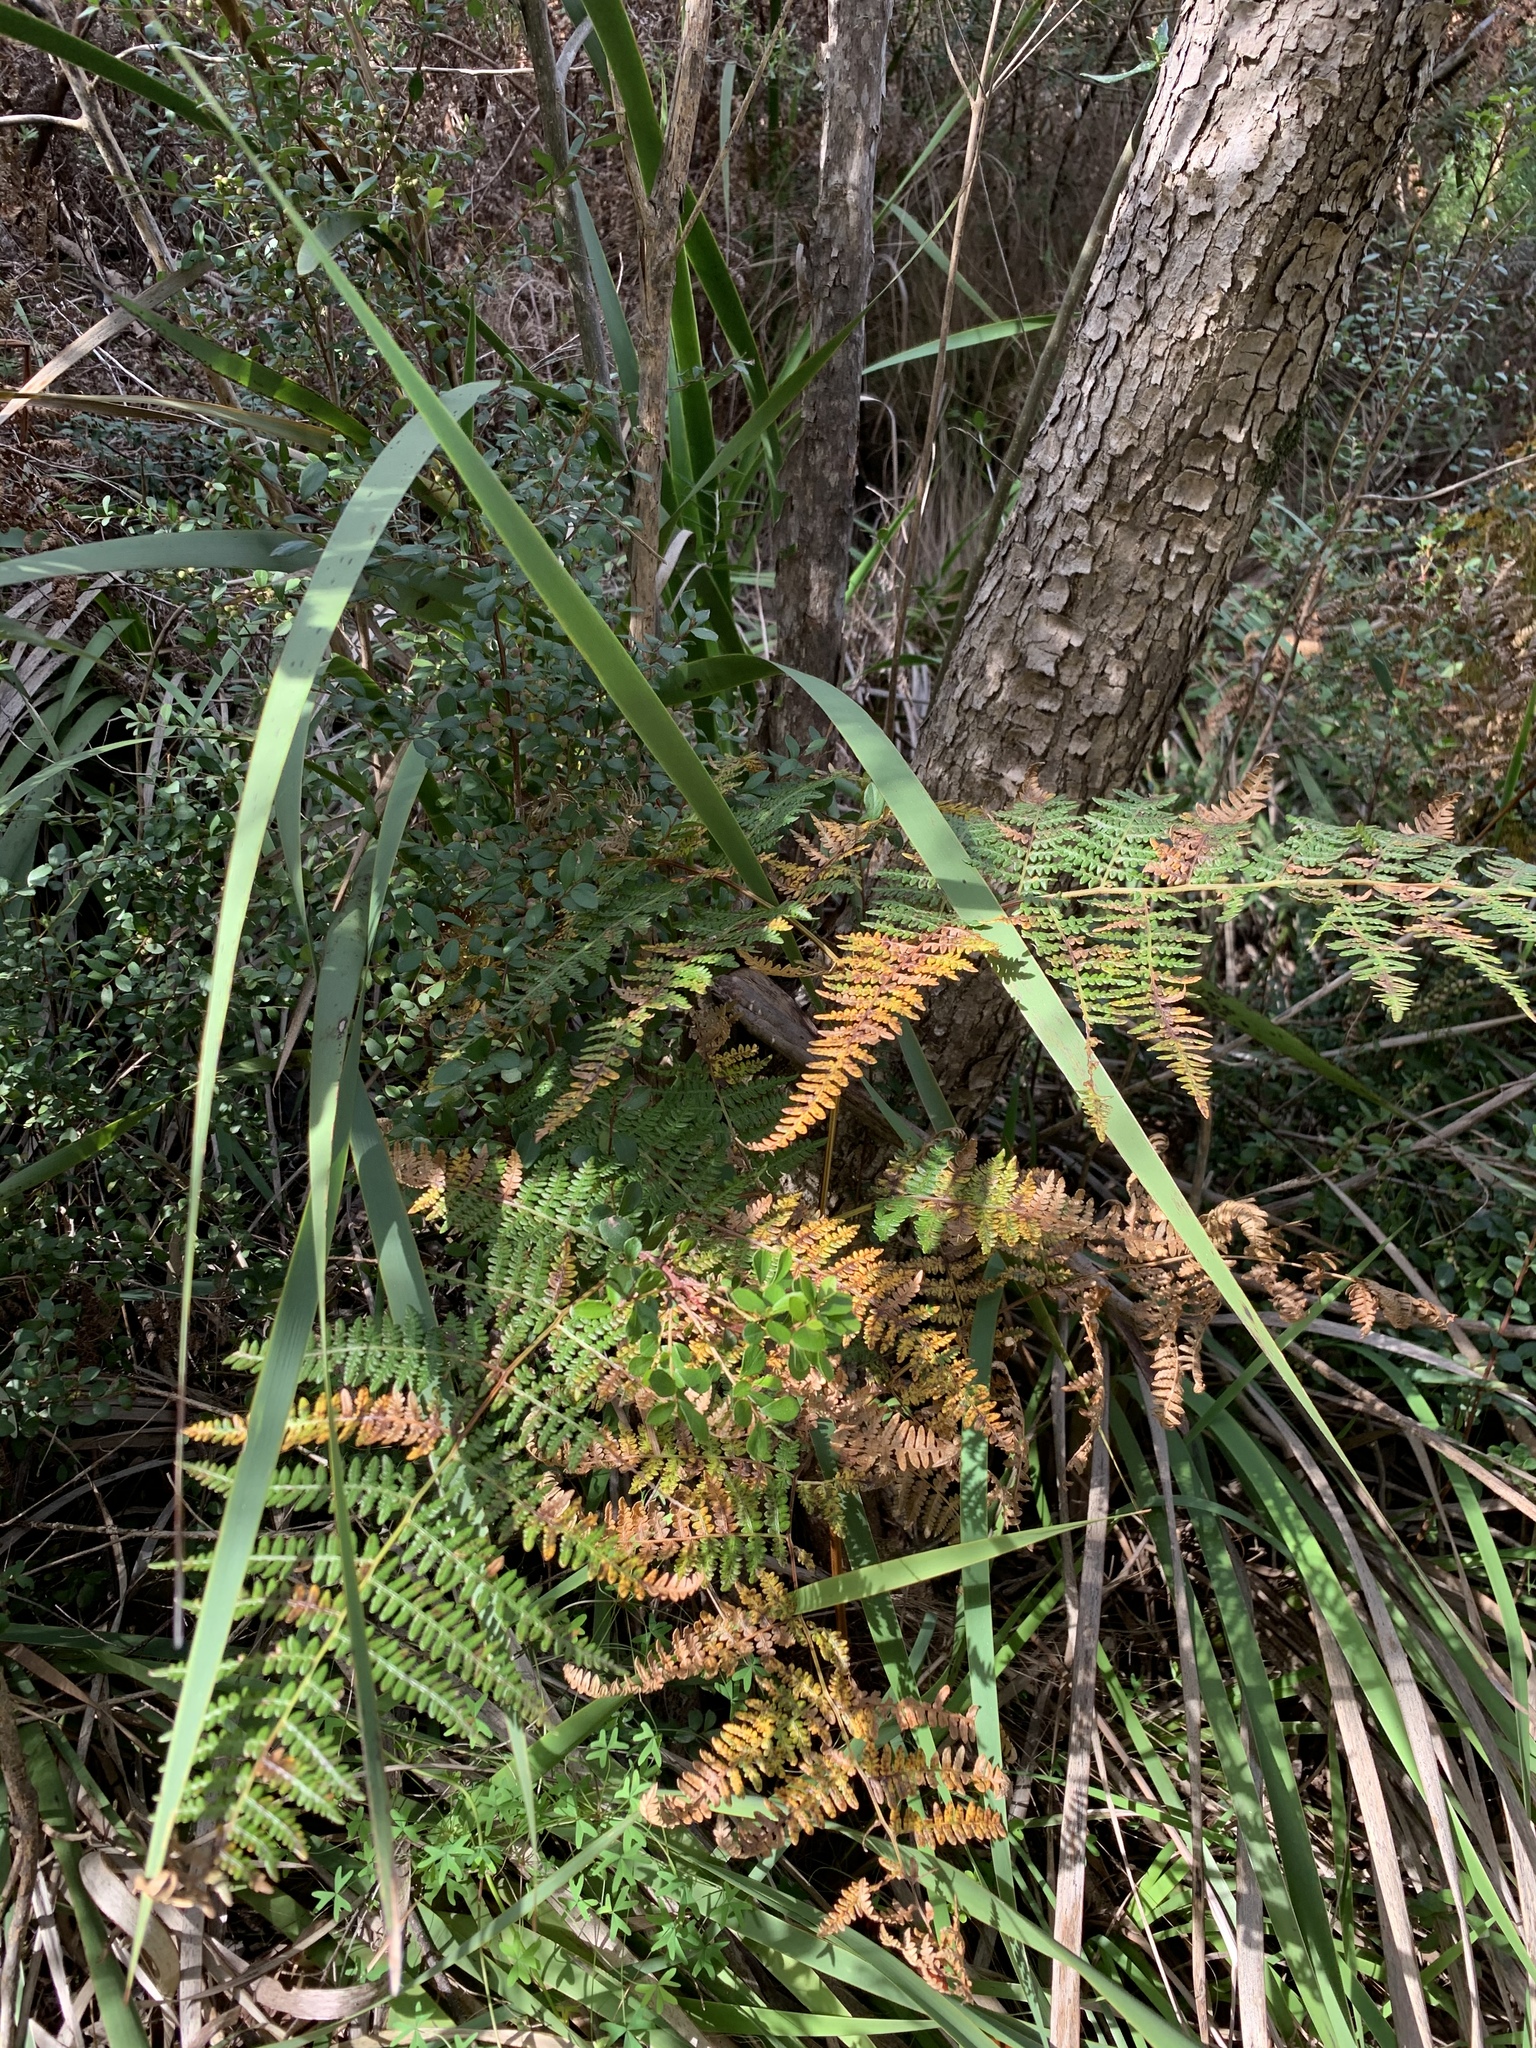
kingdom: Plantae
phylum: Tracheophyta
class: Polypodiopsida
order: Polypodiales
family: Dennstaedtiaceae
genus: Pteridium
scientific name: Pteridium aquilinum
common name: Bracken
